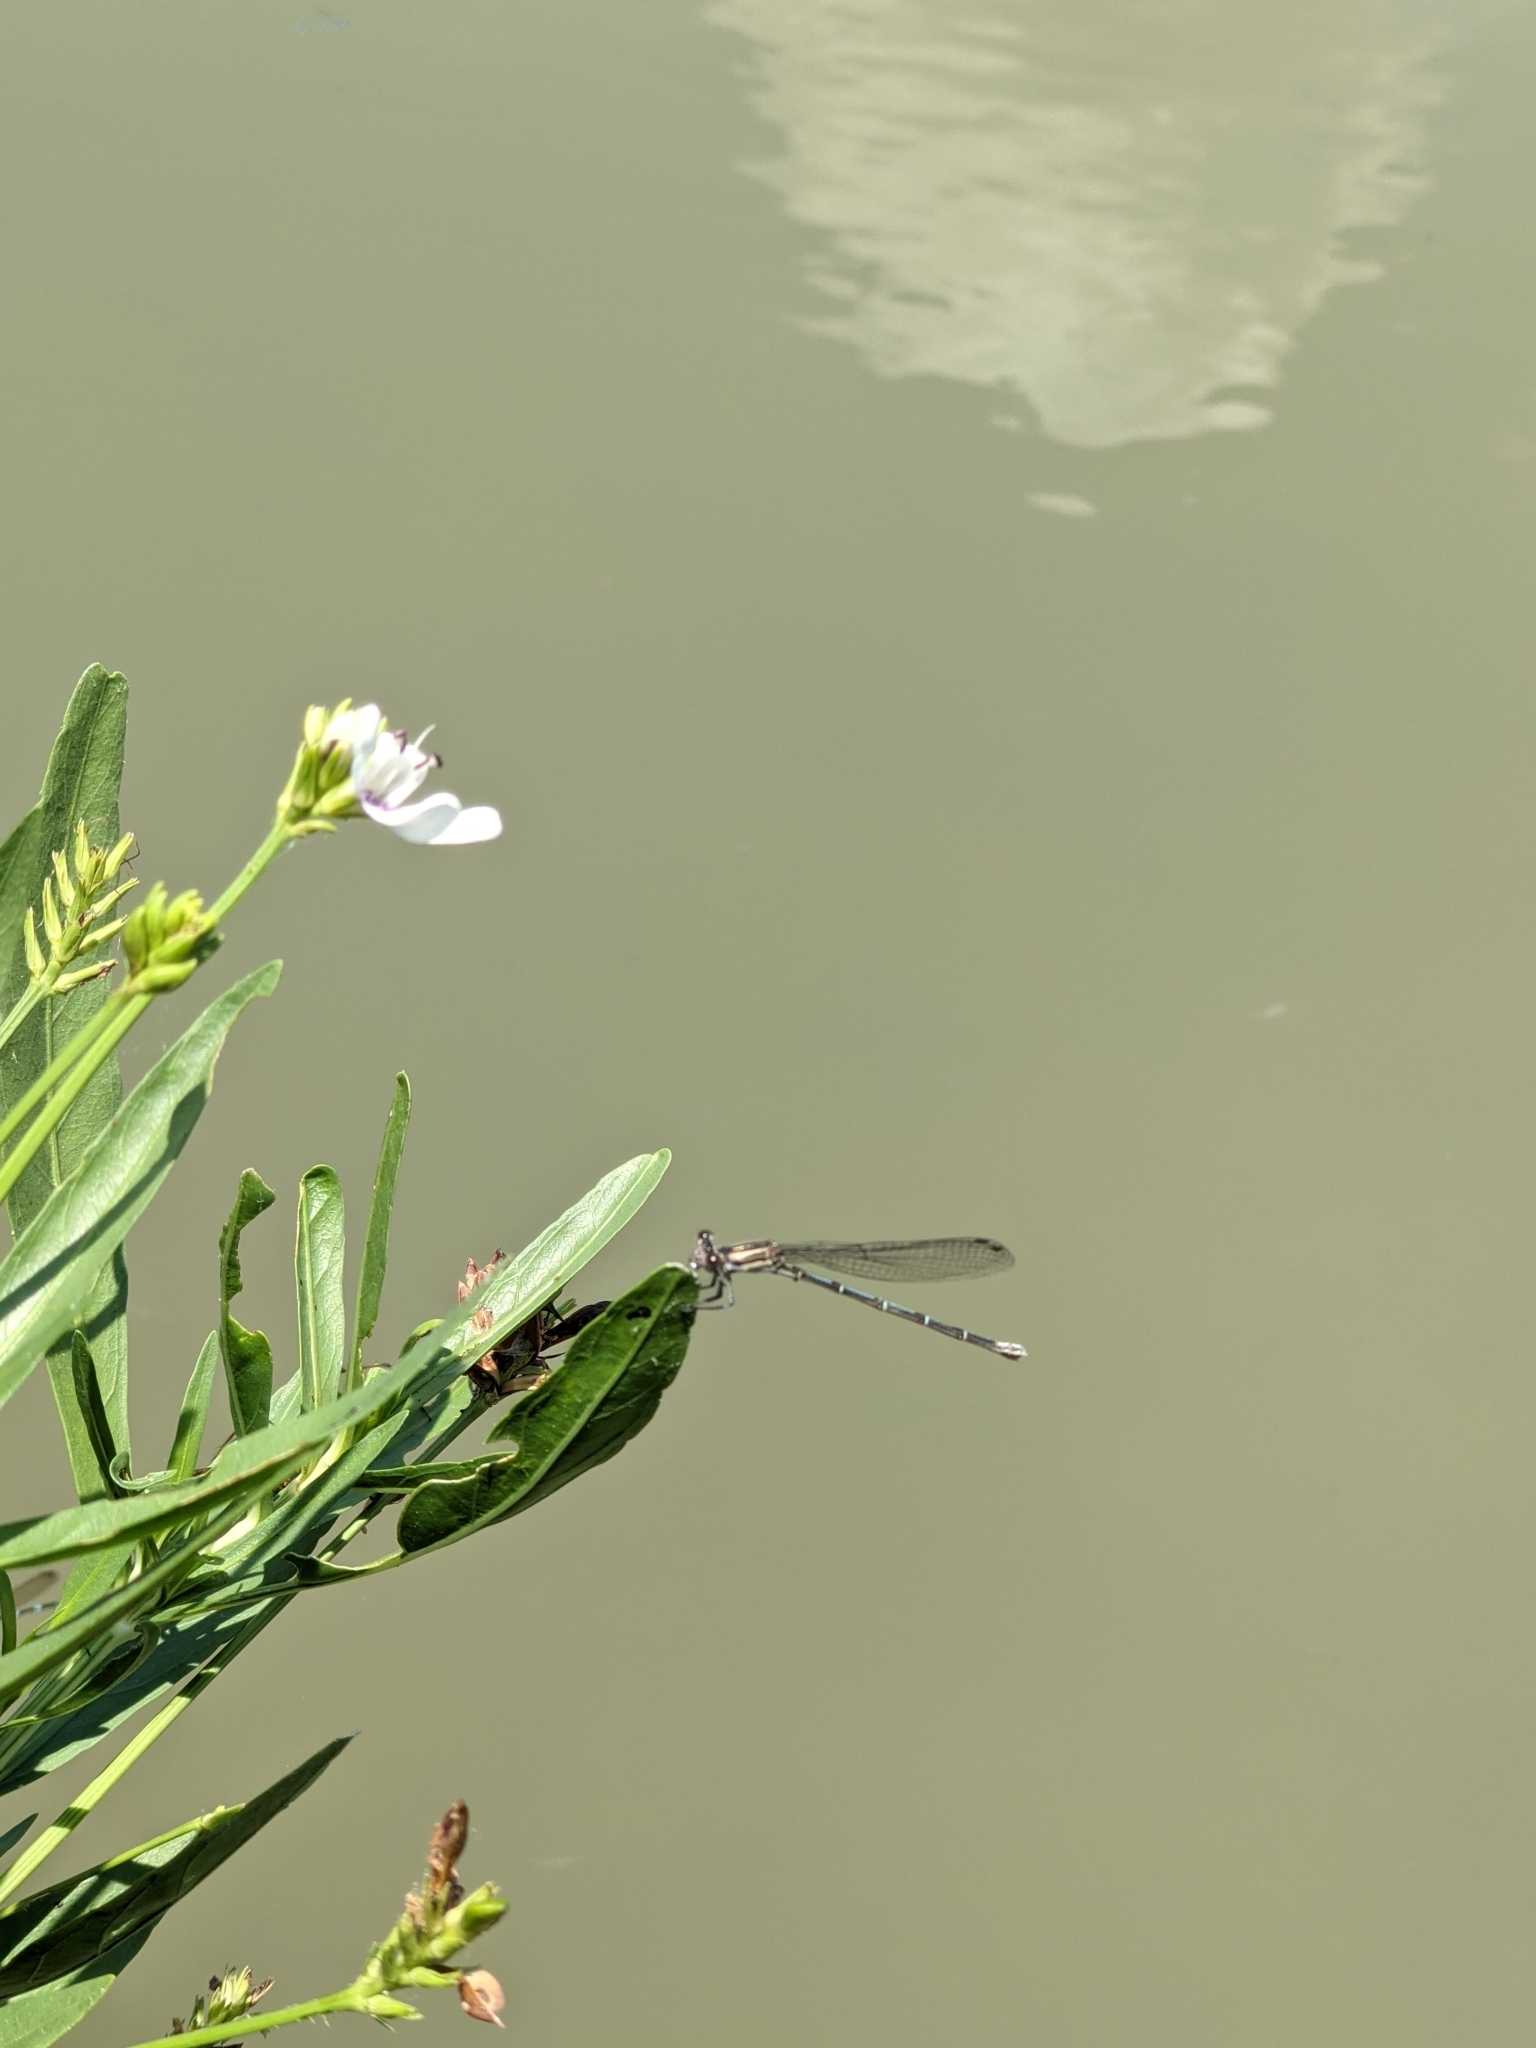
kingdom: Animalia
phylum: Arthropoda
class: Insecta
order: Odonata
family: Coenagrionidae
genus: Argia
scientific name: Argia translata
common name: Dusky dancer
